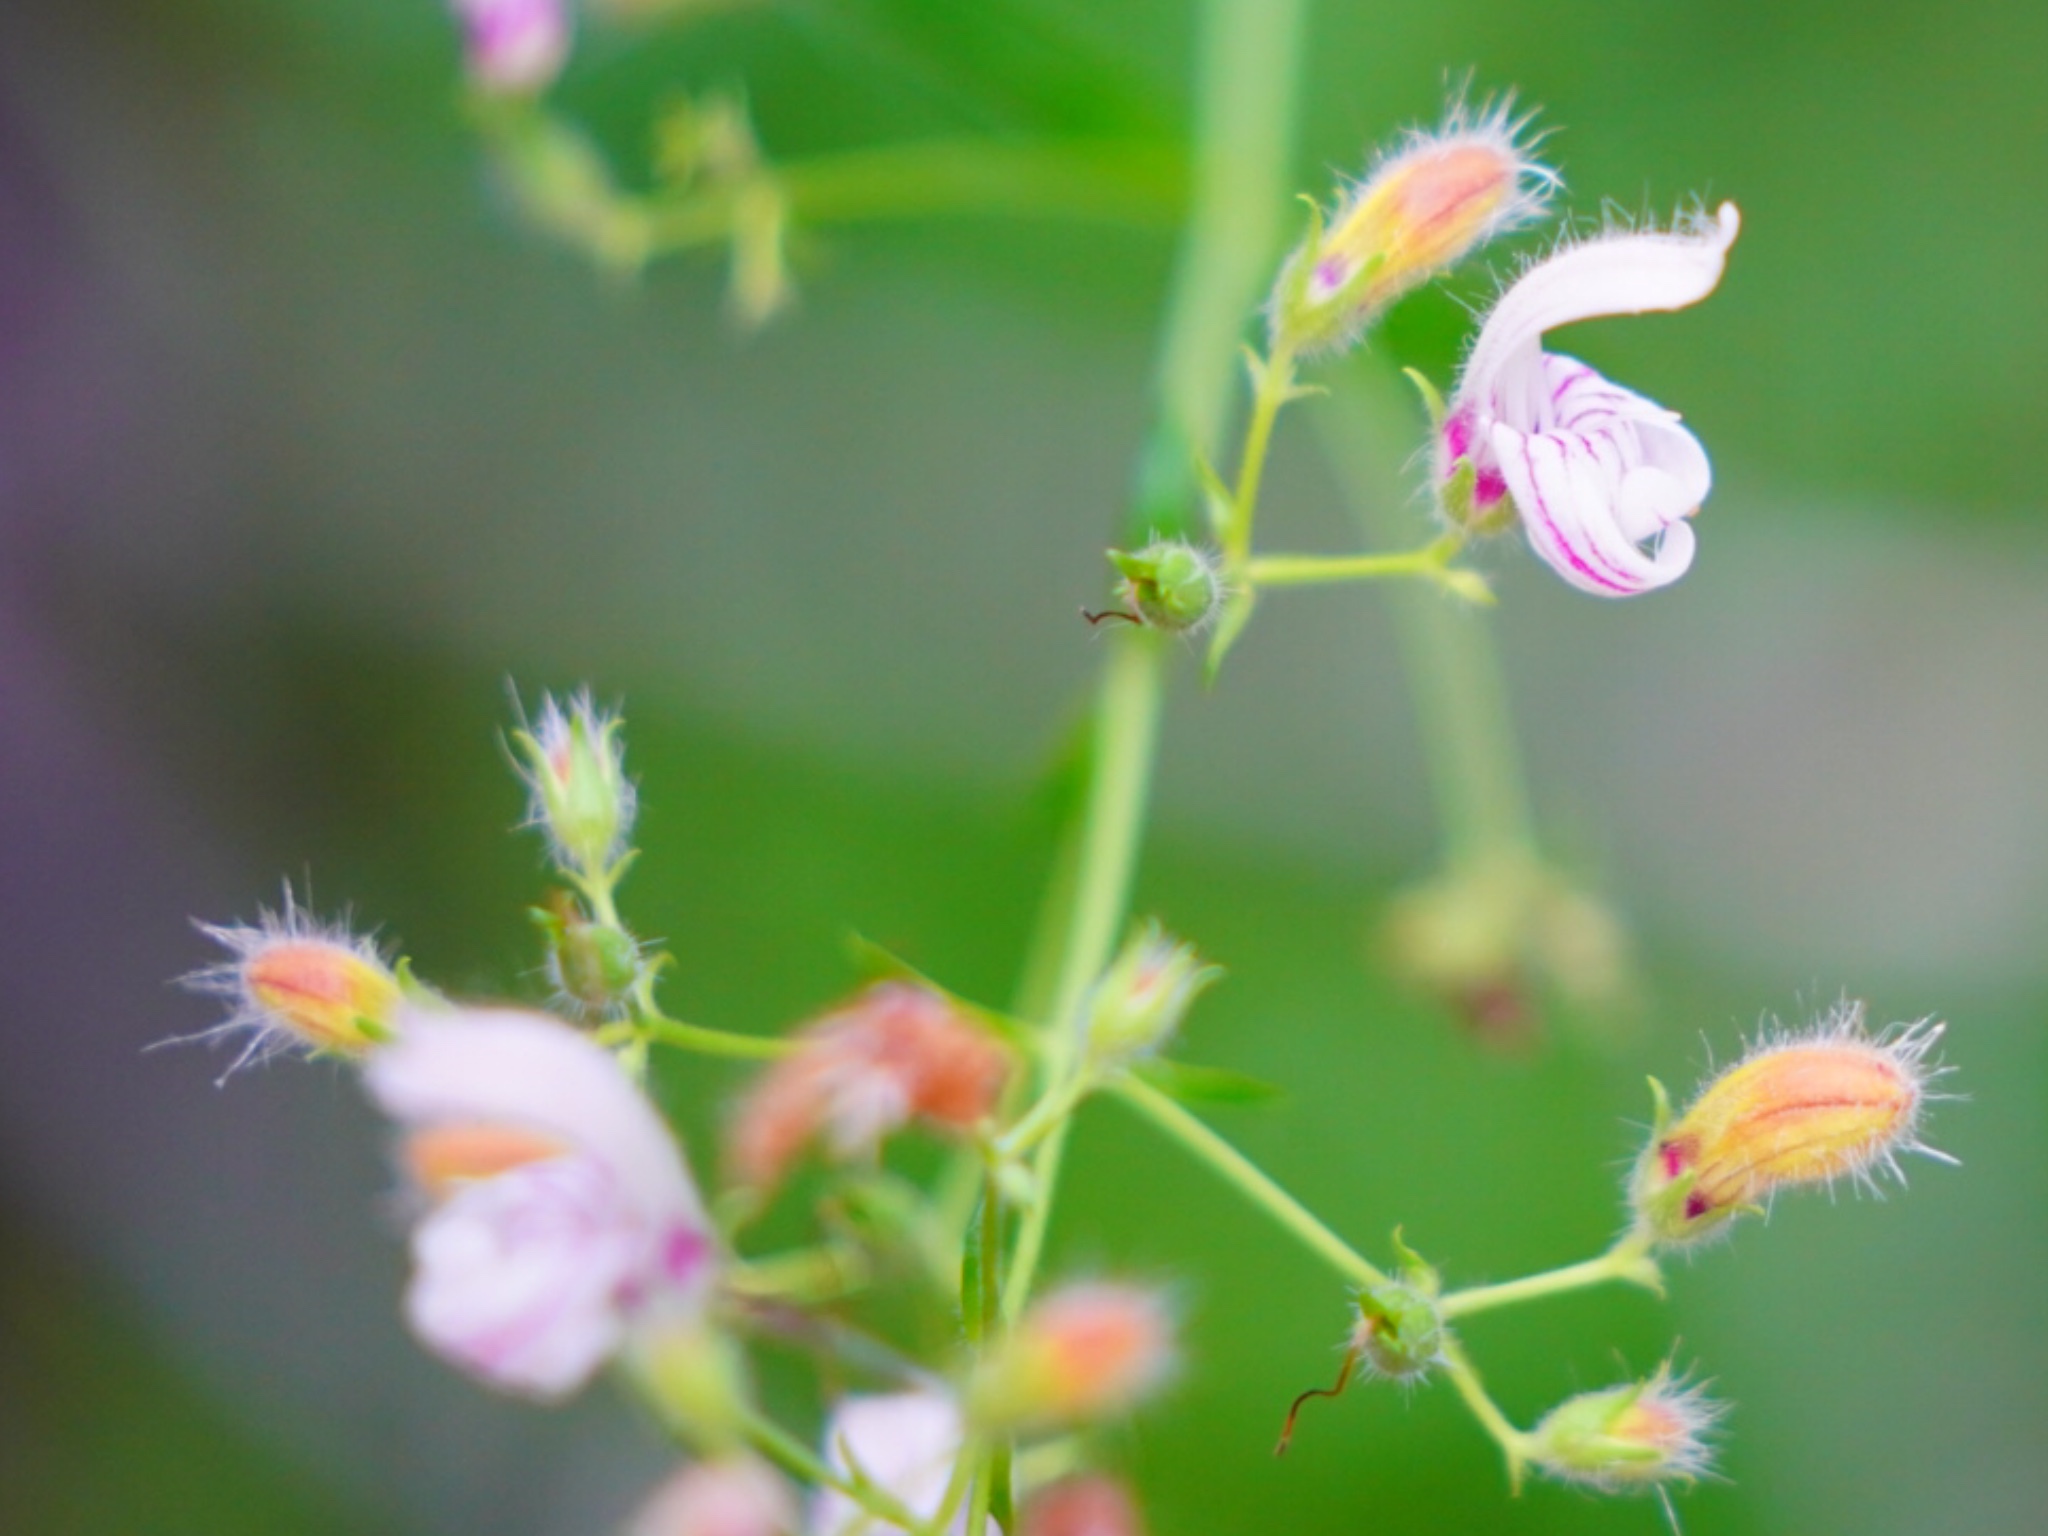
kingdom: Plantae
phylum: Tracheophyta
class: Magnoliopsida
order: Lamiales
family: Plantaginaceae
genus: Keckiella
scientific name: Keckiella breviflora
